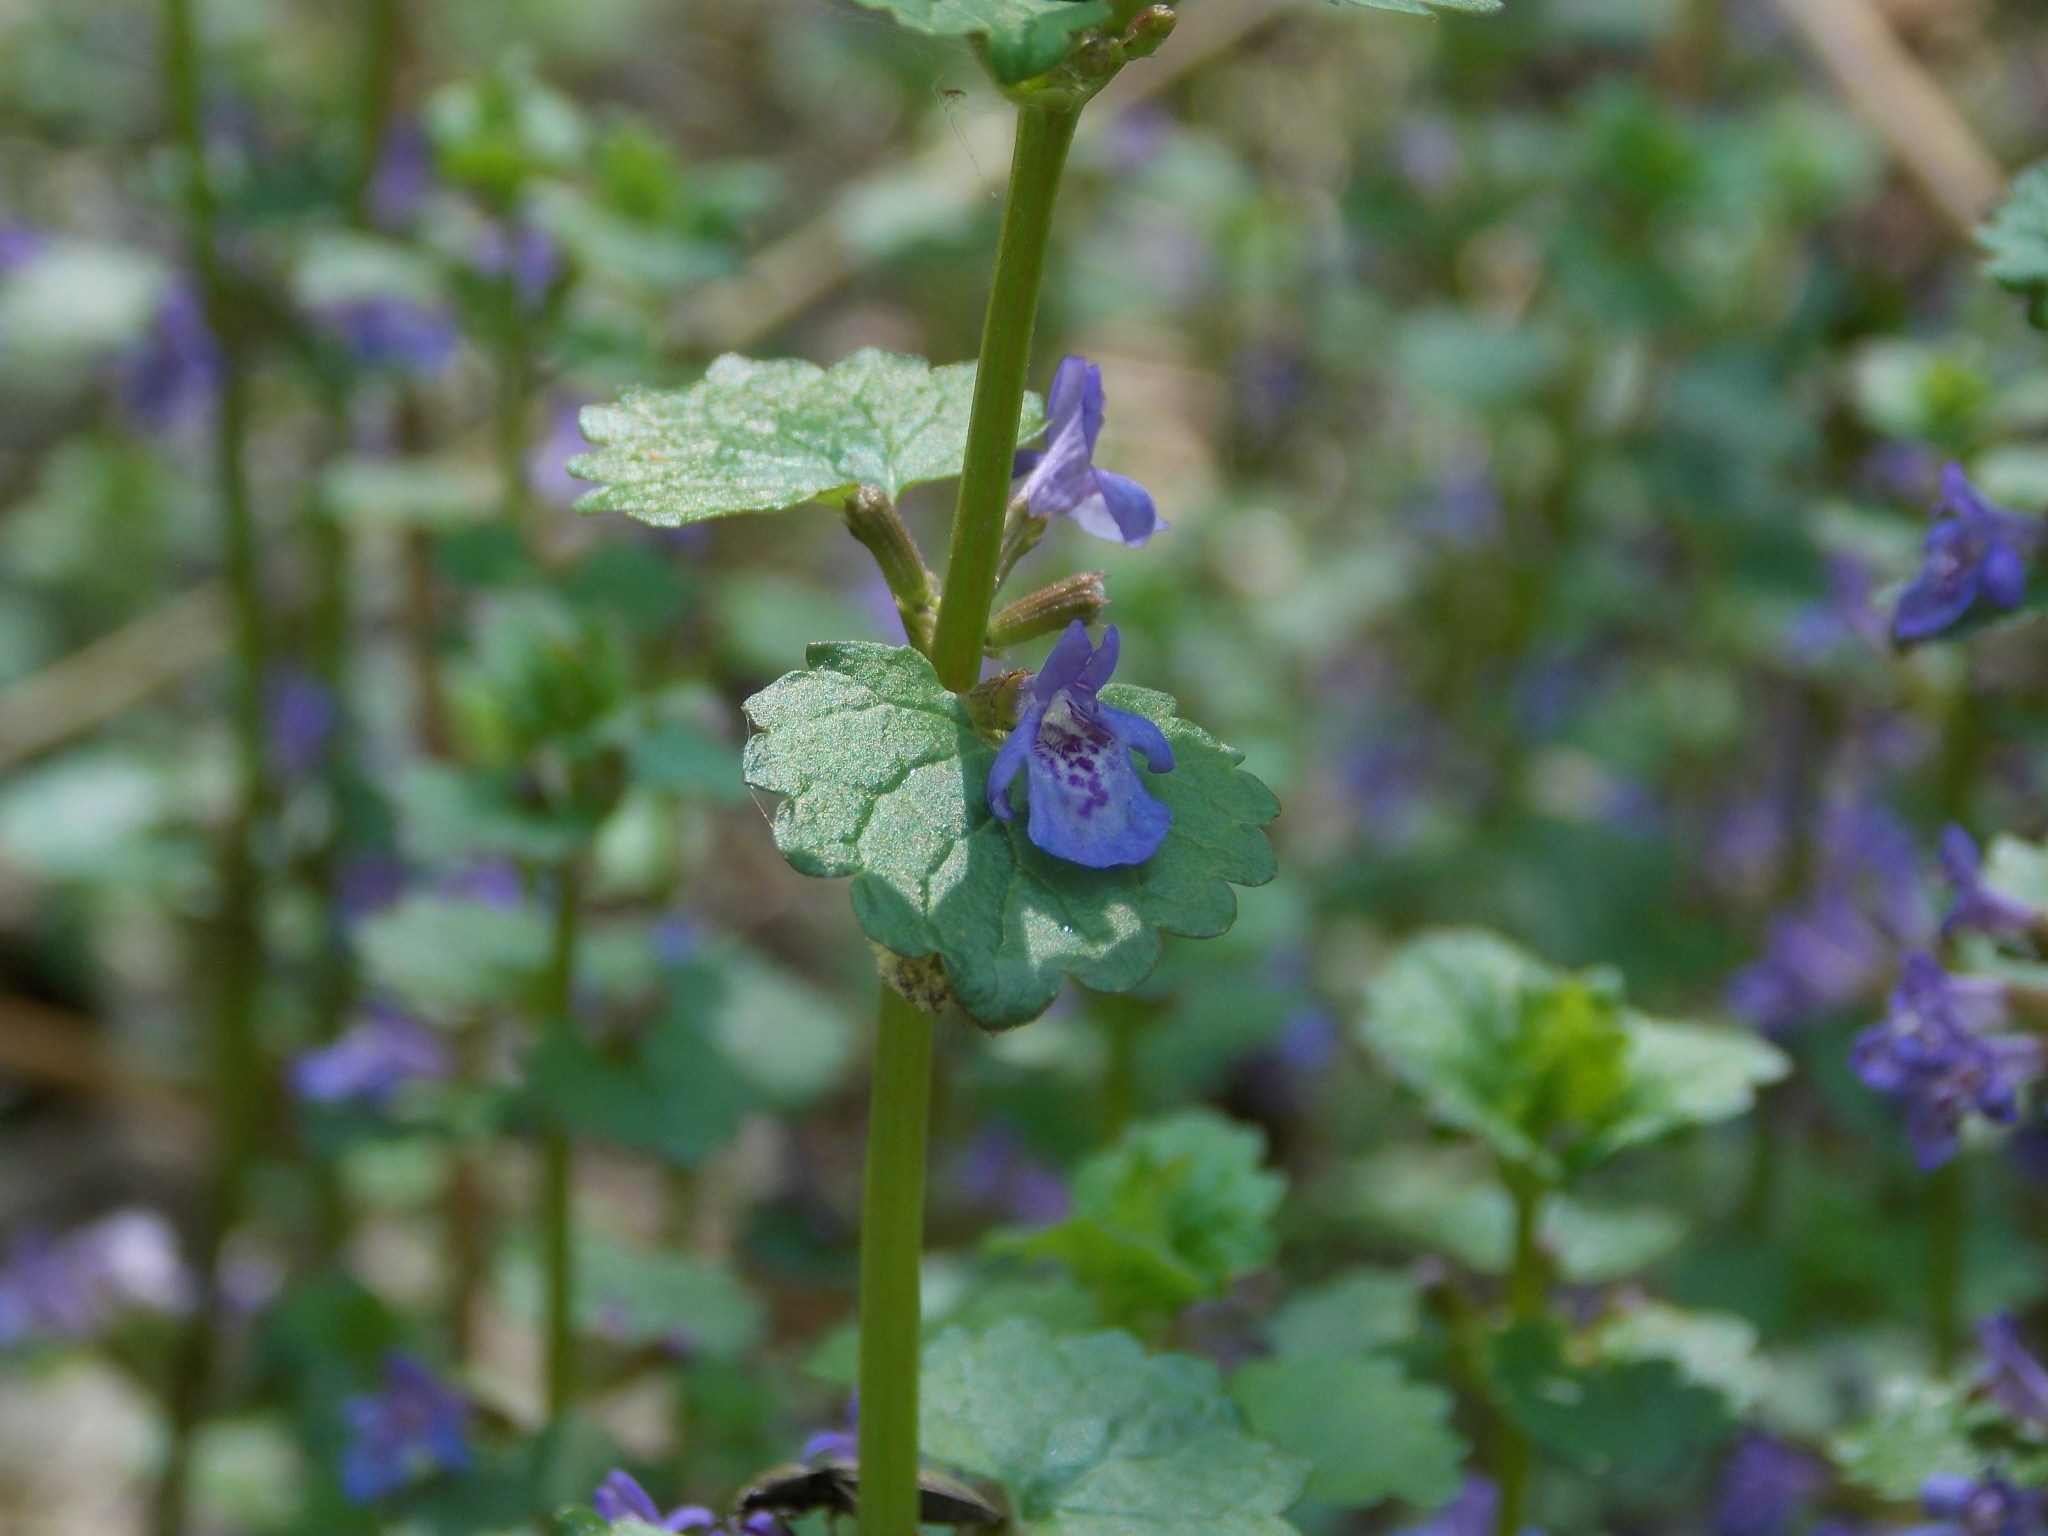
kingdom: Plantae
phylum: Tracheophyta
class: Magnoliopsida
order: Lamiales
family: Lamiaceae
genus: Glechoma
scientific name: Glechoma hederacea
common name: Ground ivy
